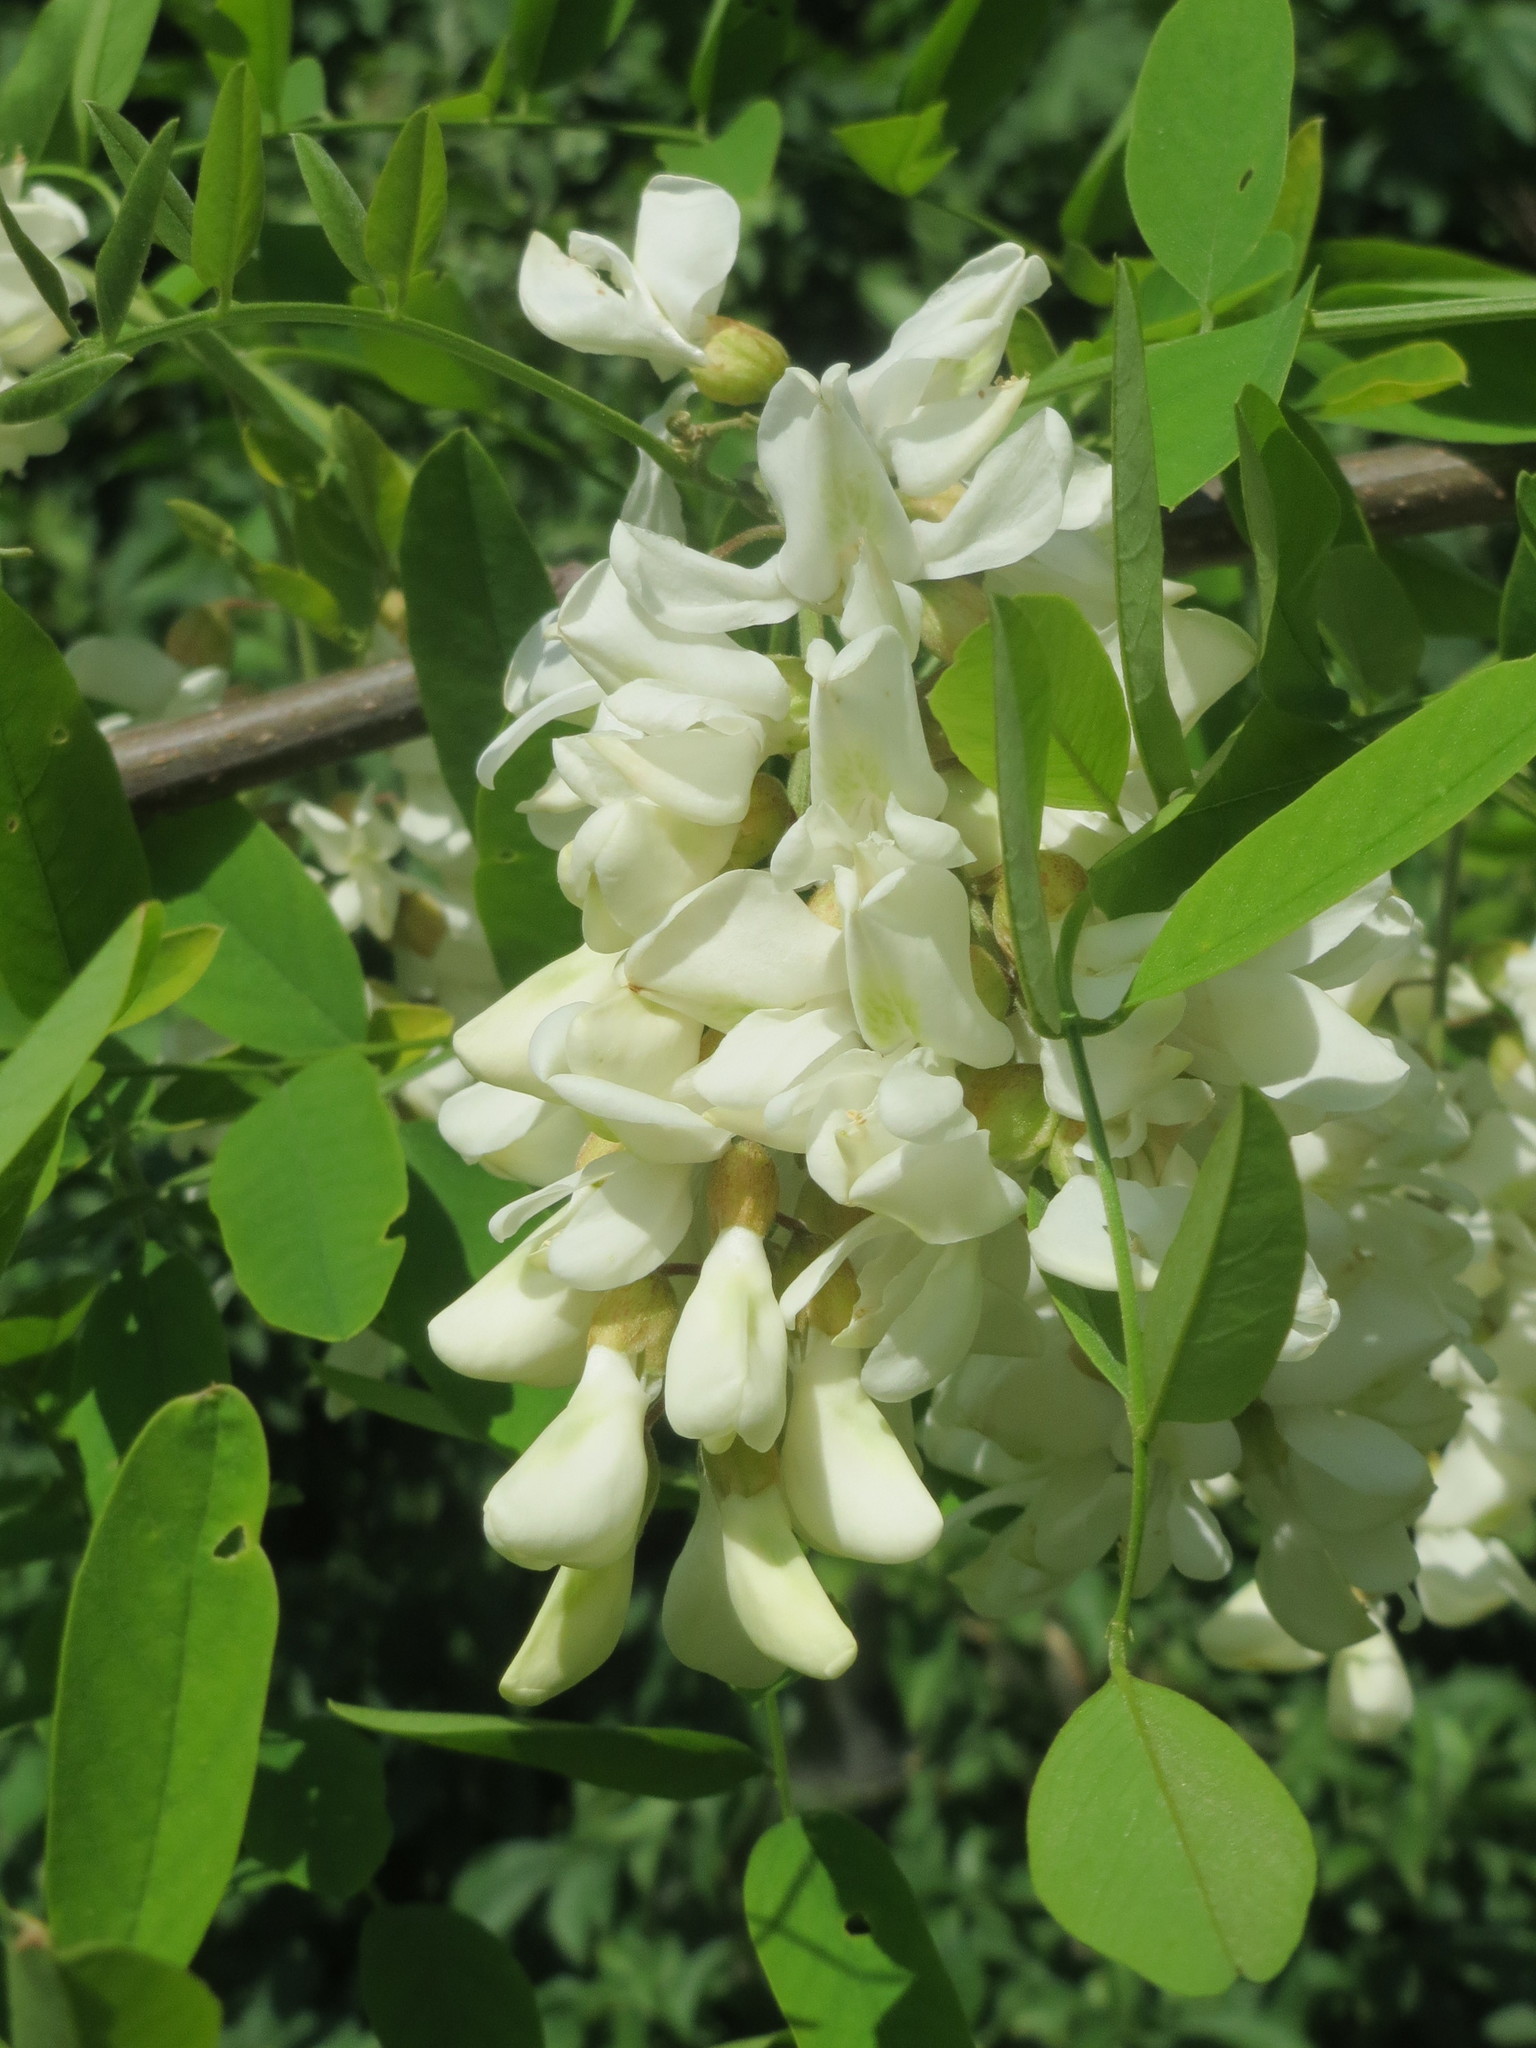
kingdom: Plantae
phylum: Tracheophyta
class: Magnoliopsida
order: Fabales
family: Fabaceae
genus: Robinia
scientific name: Robinia pseudoacacia
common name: Black locust
